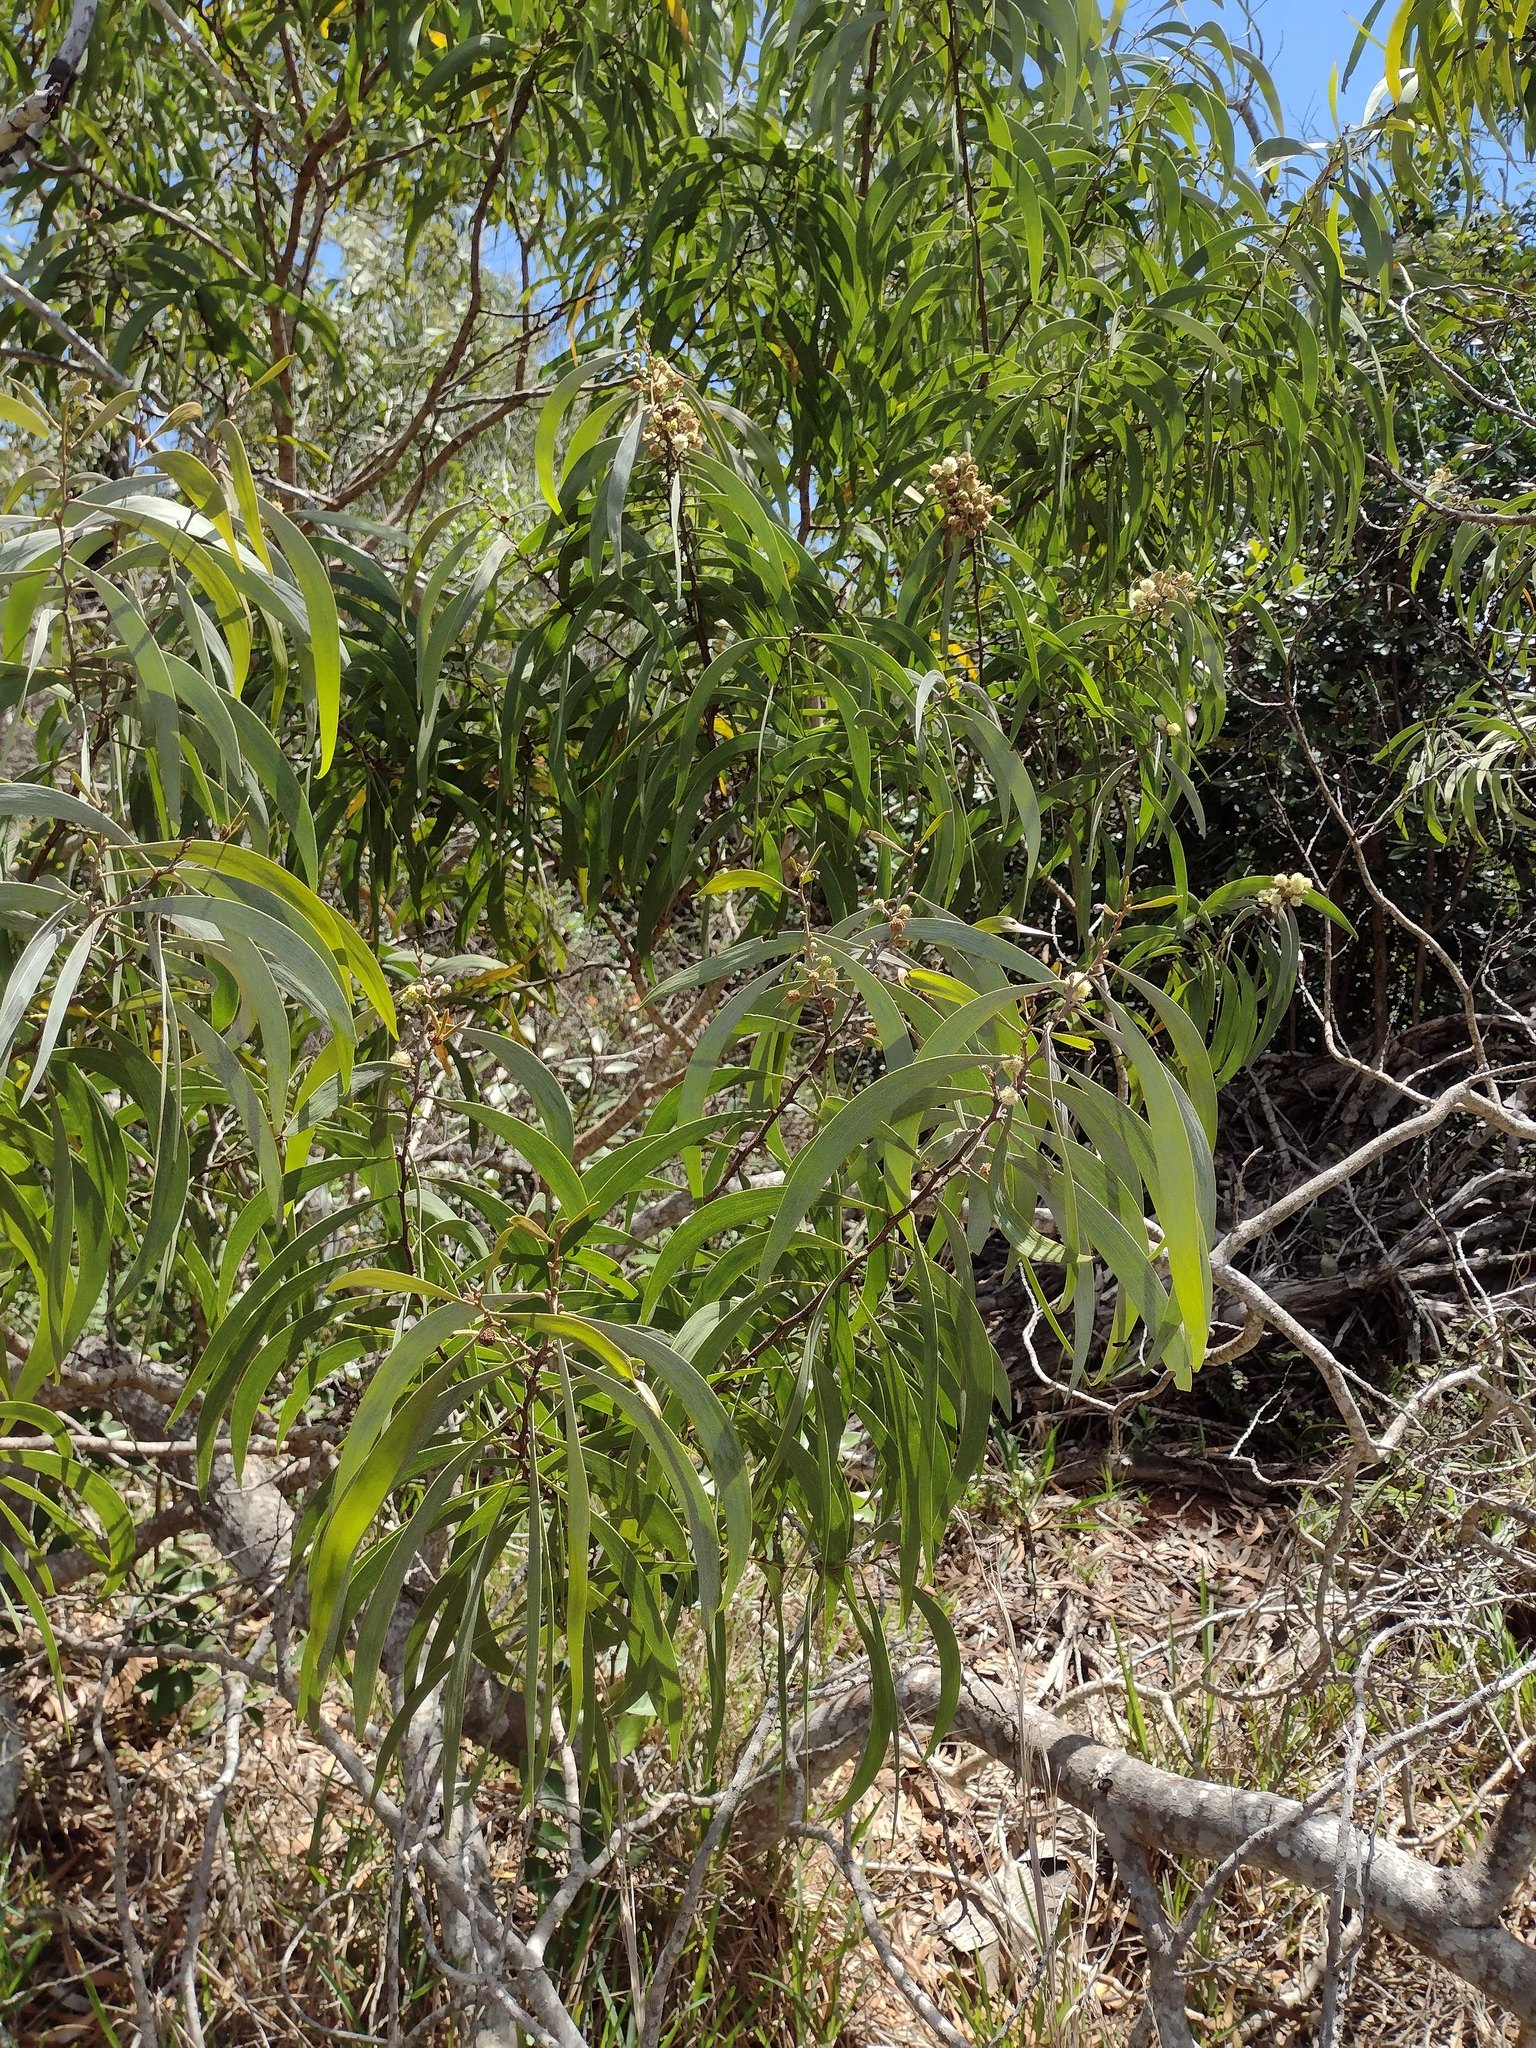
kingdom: Plantae
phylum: Tracheophyta
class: Magnoliopsida
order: Fabales
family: Fabaceae
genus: Acacia
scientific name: Acacia koa
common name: Gray koa
